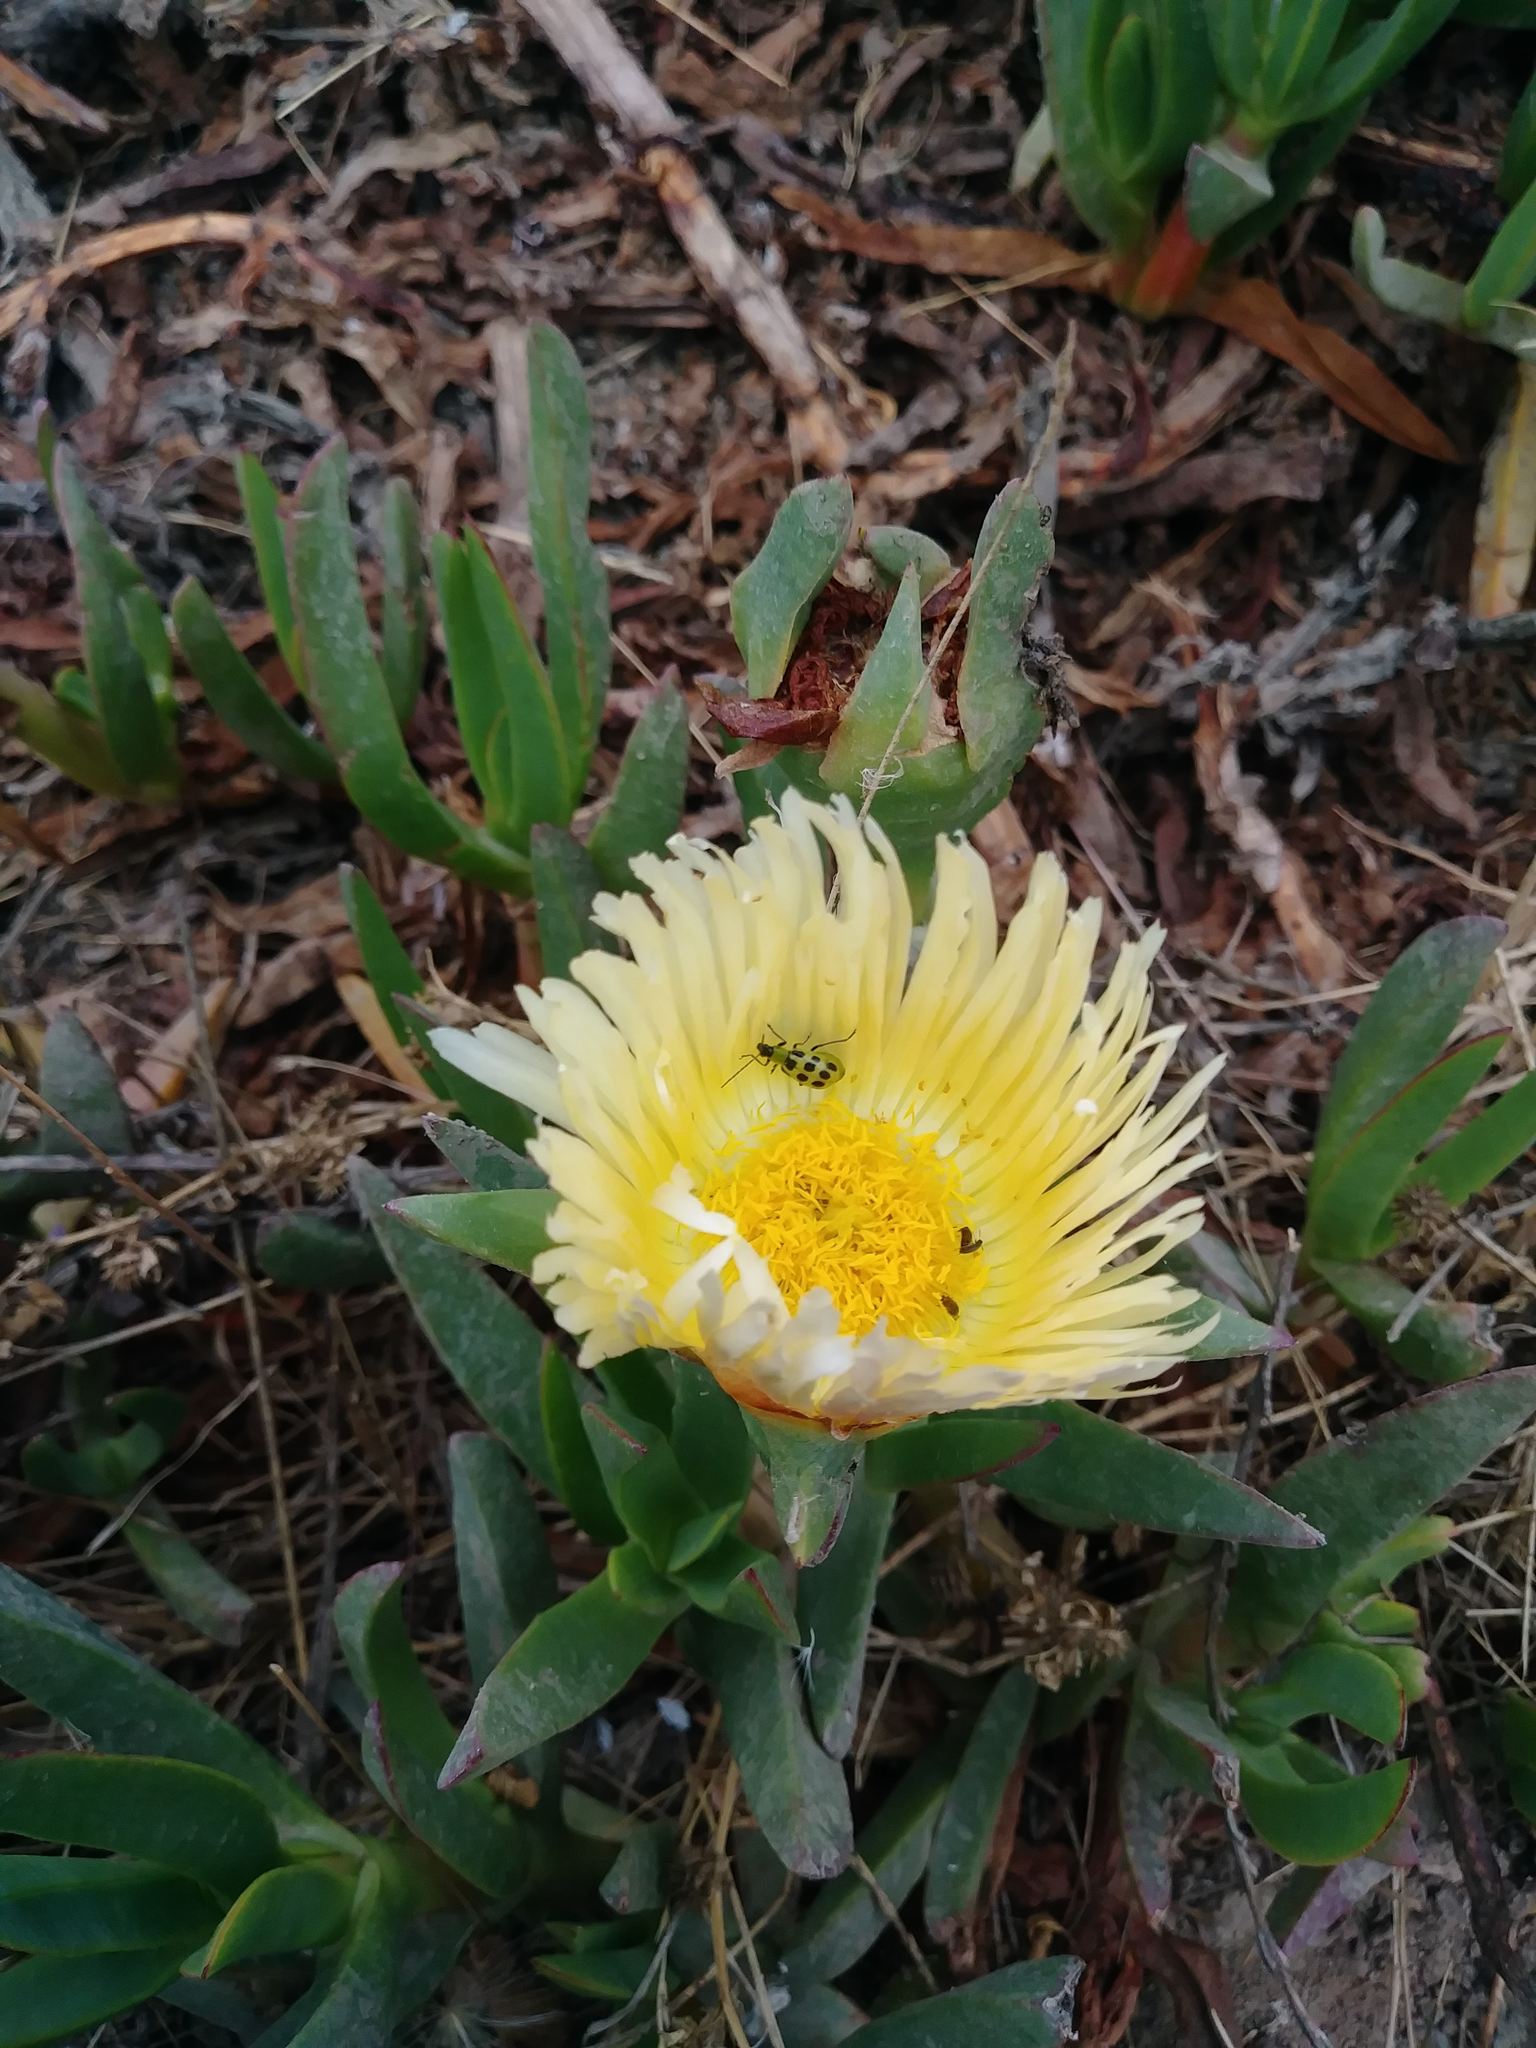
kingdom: Animalia
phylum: Arthropoda
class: Insecta
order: Coleoptera
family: Chrysomelidae
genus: Diabrotica
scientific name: Diabrotica undecimpunctata
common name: Spotted cucumber beetle
